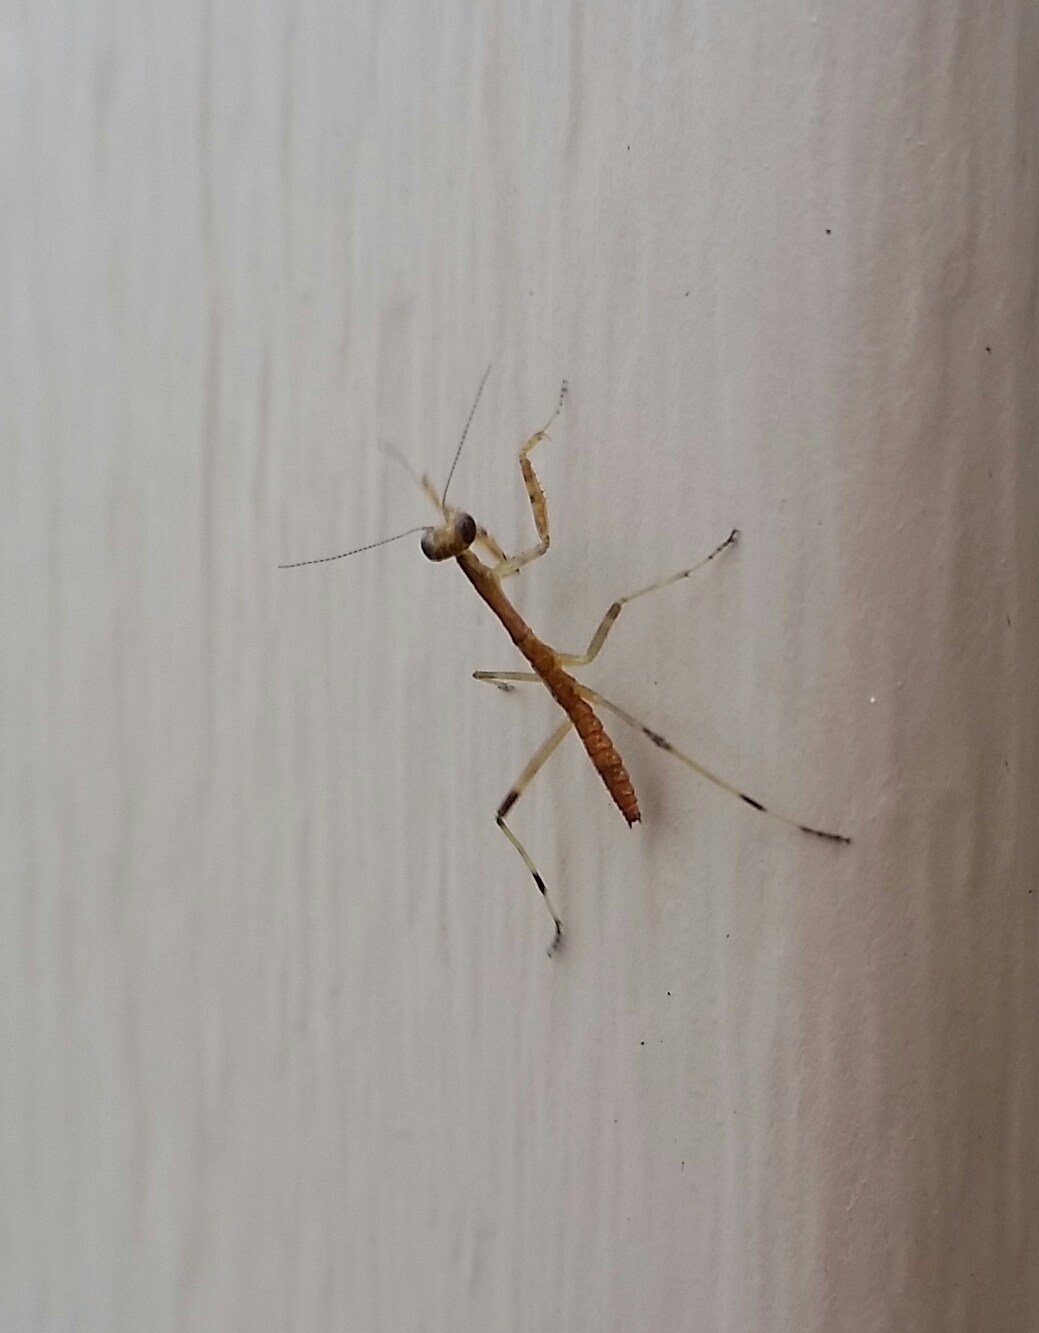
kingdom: Animalia
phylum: Arthropoda
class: Insecta
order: Mantodea
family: Mantidae
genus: Stagmomantis
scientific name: Stagmomantis carolina
